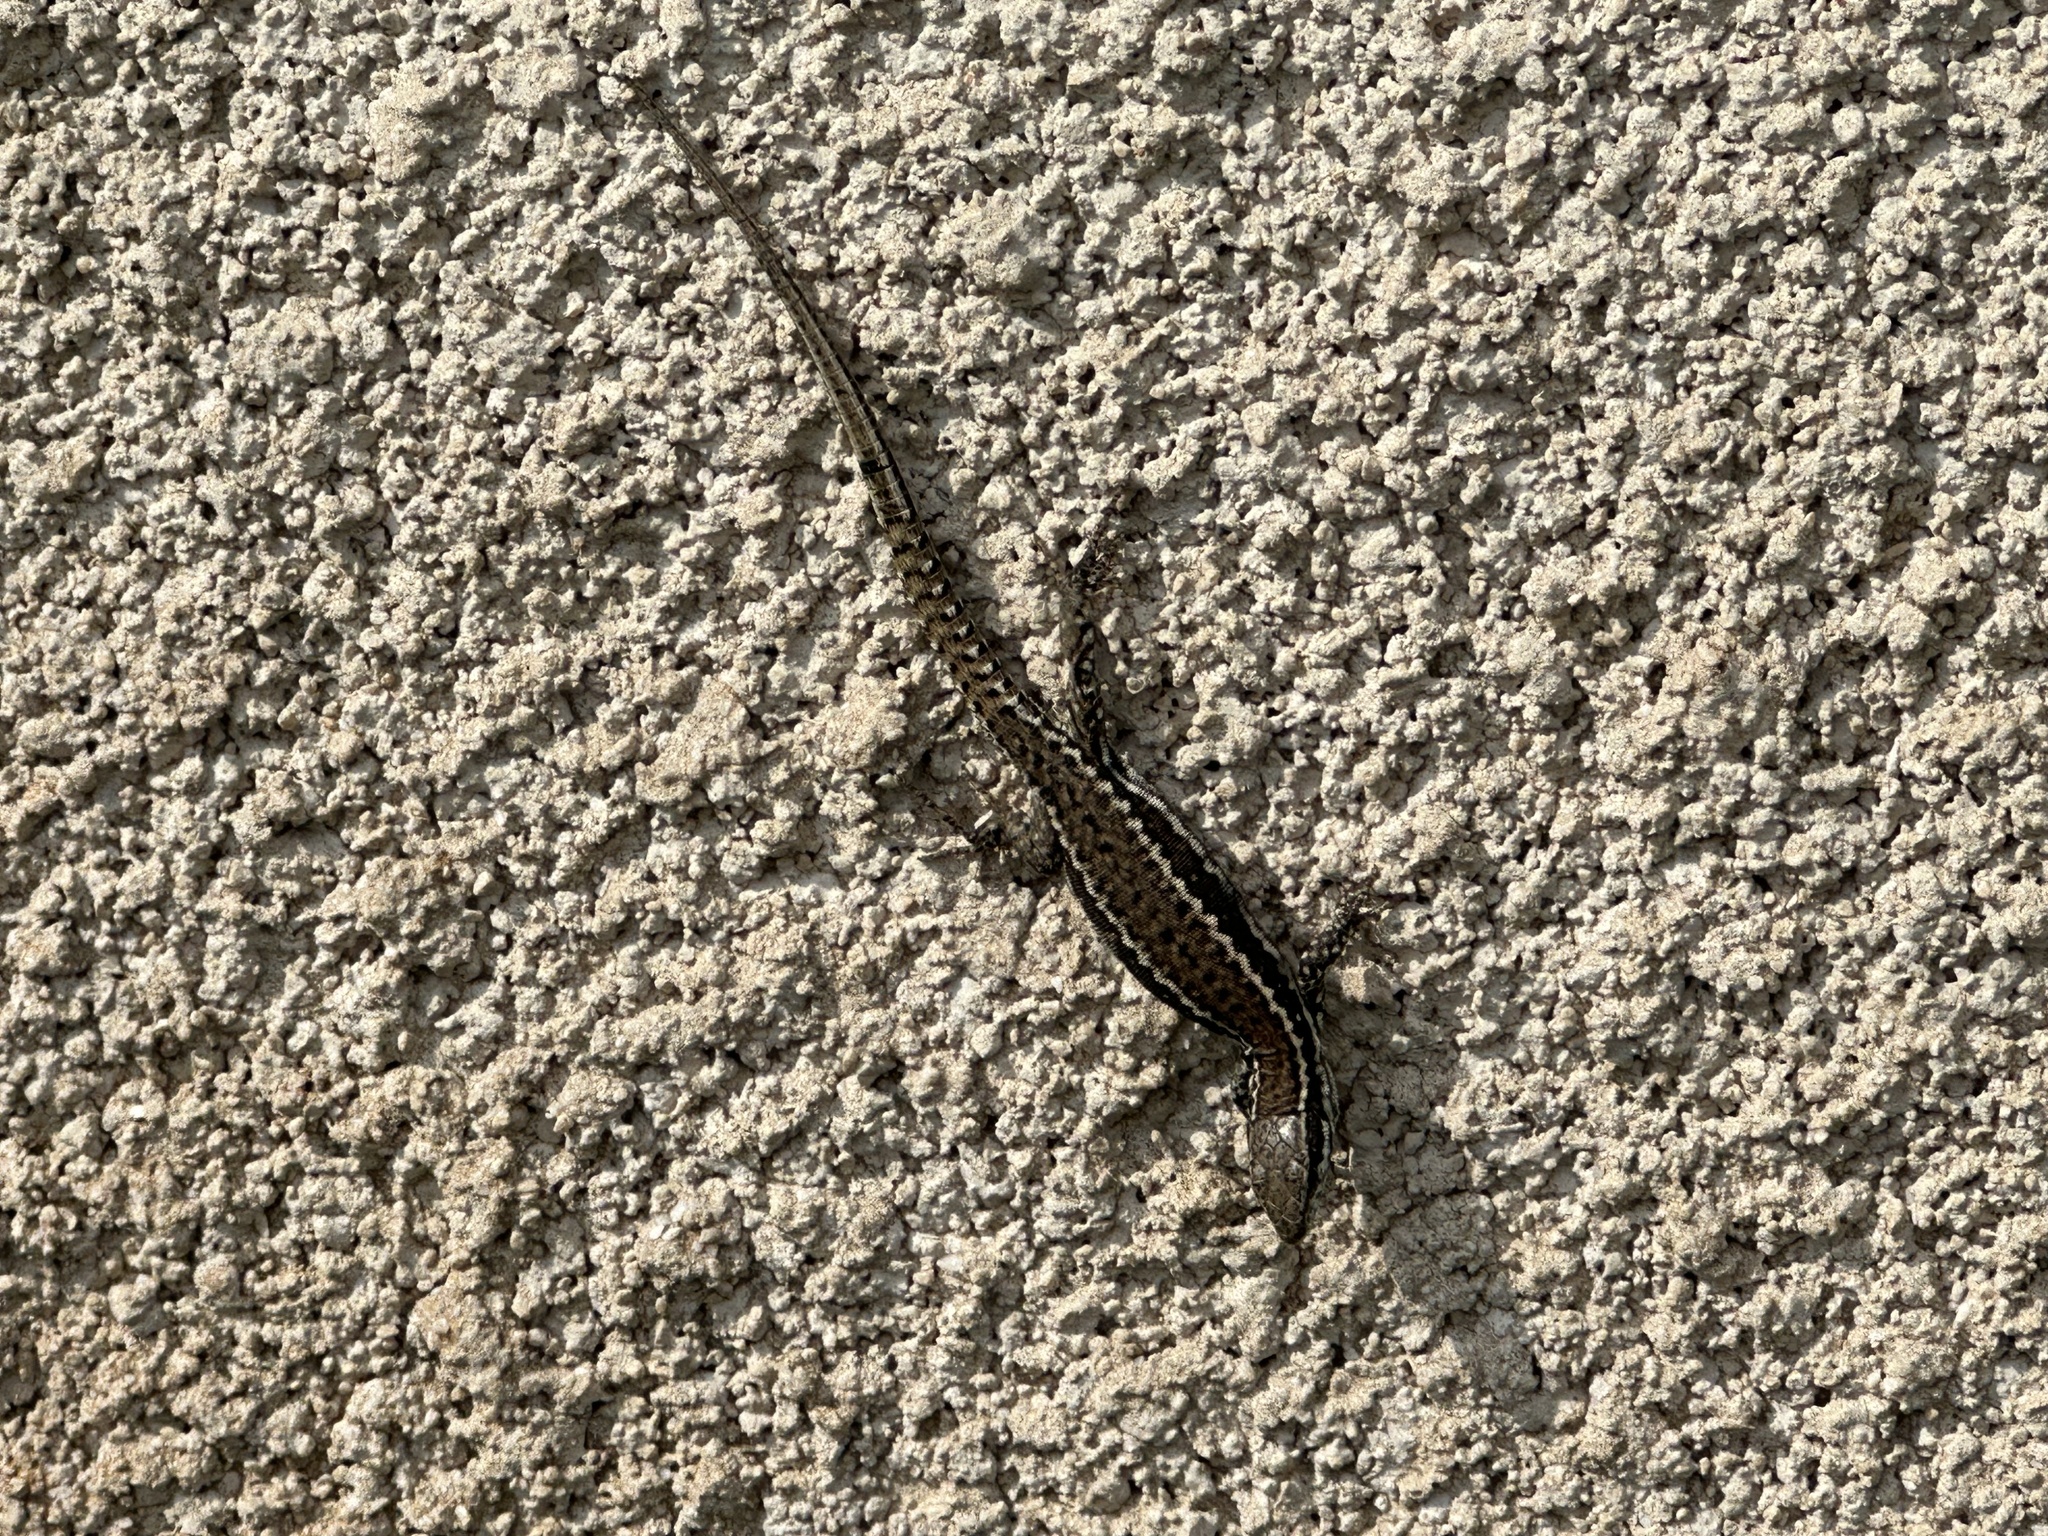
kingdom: Animalia
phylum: Chordata
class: Squamata
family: Lacertidae
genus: Podarcis
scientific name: Podarcis muralis
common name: Common wall lizard
